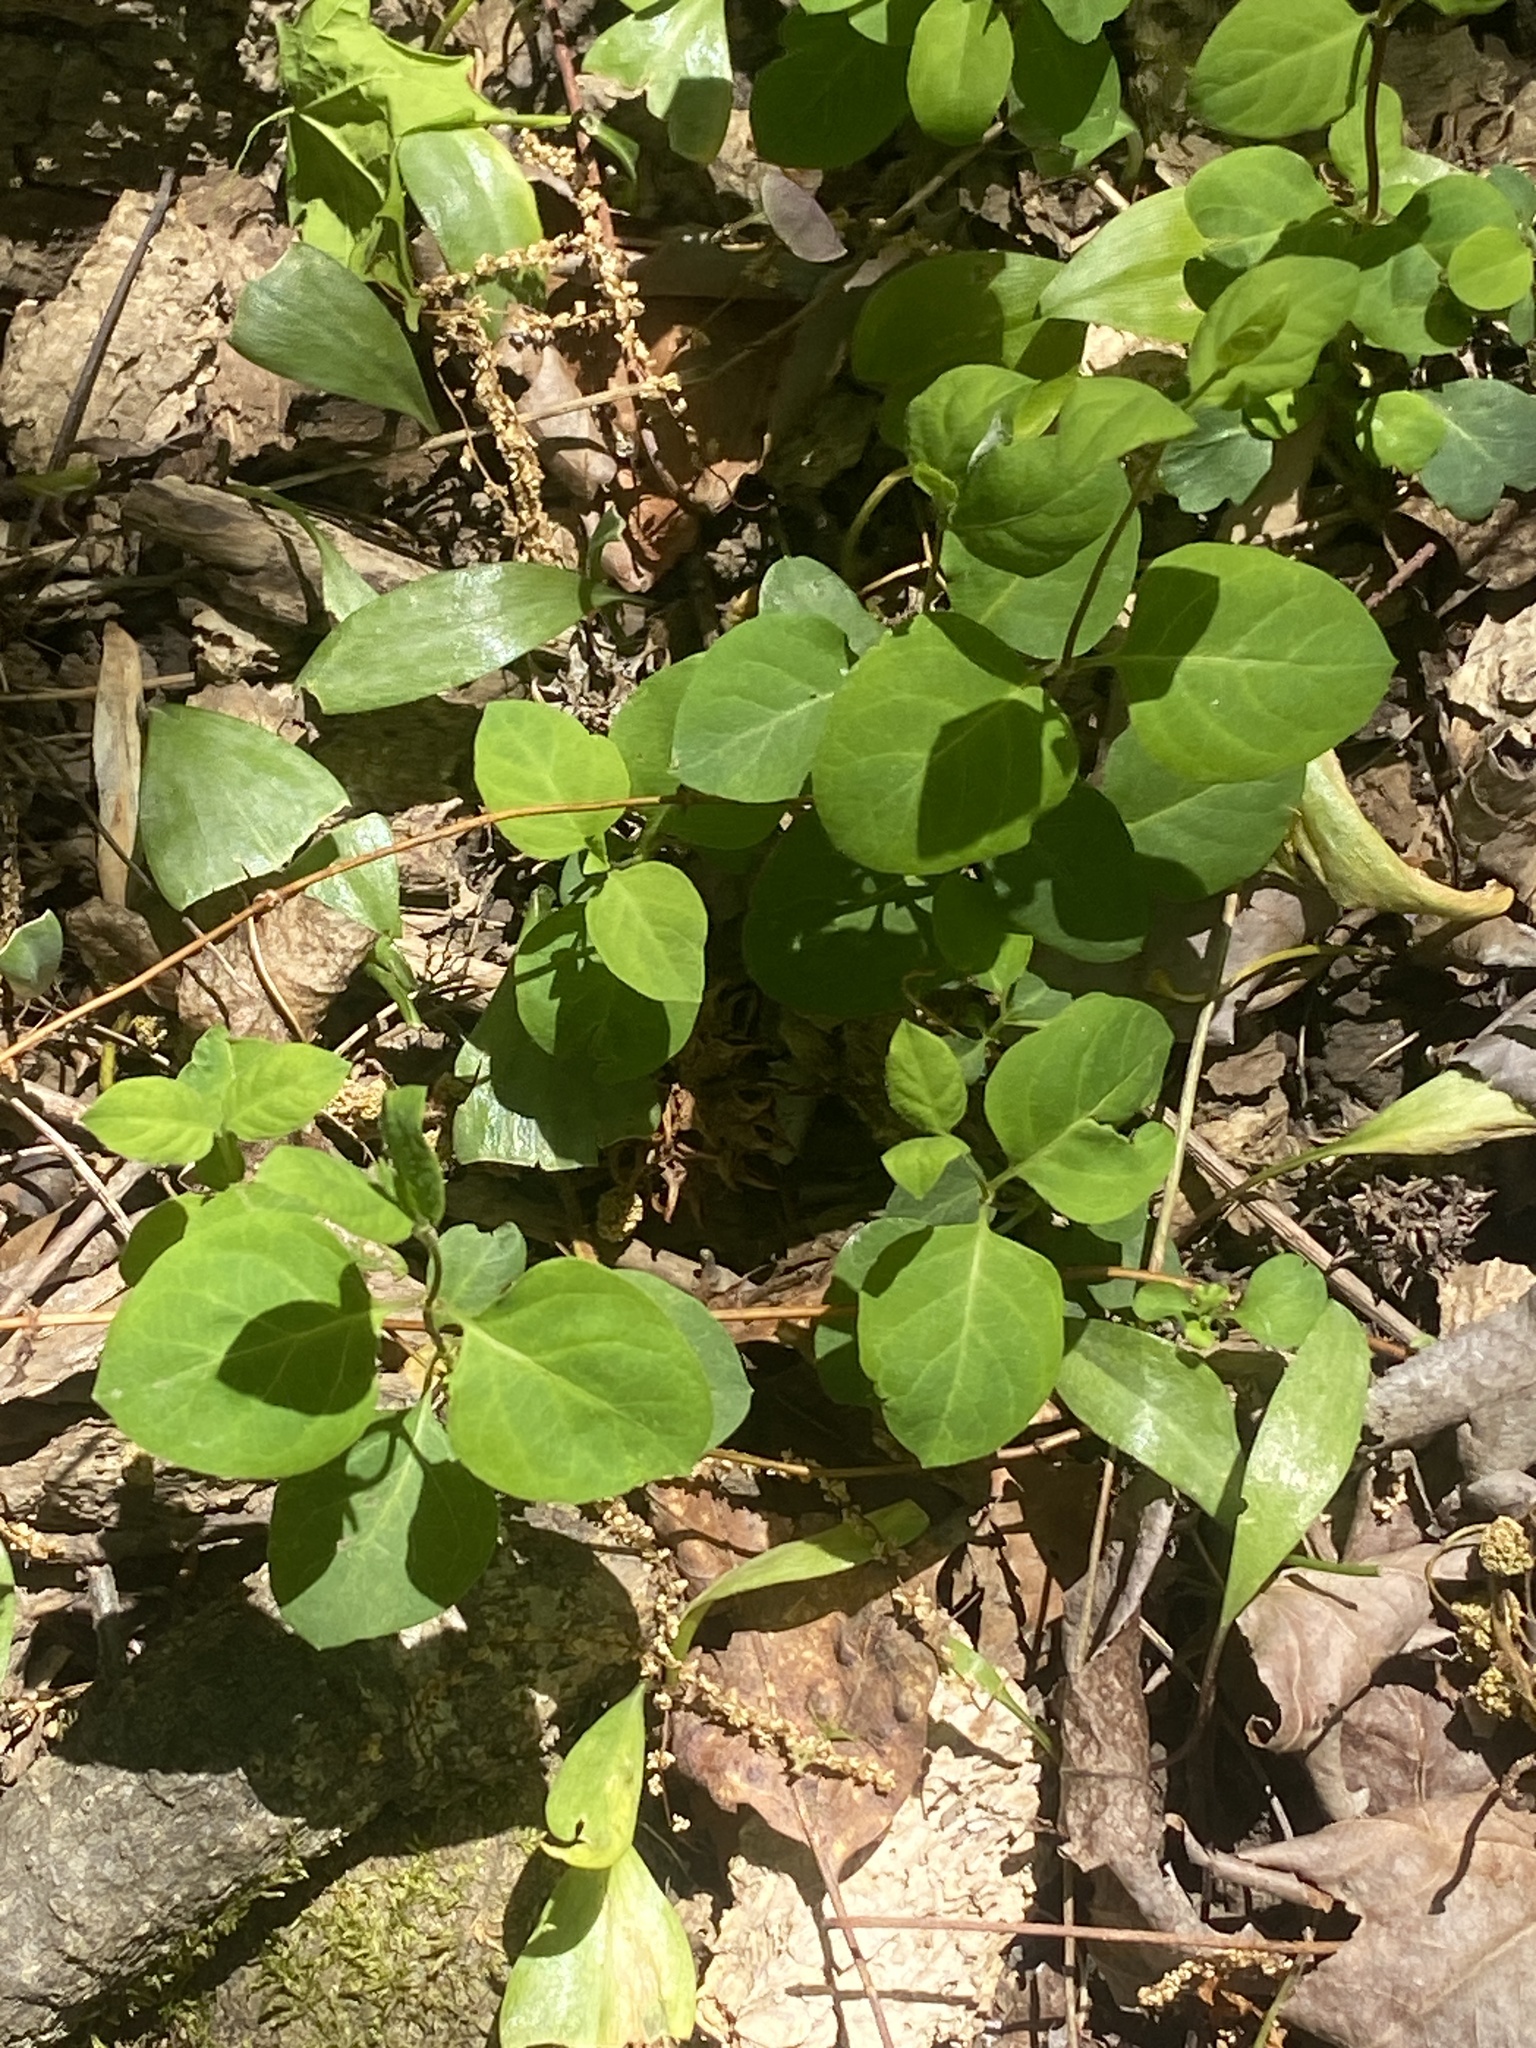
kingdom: Plantae
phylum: Tracheophyta
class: Magnoliopsida
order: Dipsacales
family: Caprifoliaceae
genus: Lonicera
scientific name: Lonicera japonica
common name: Japanese honeysuckle
